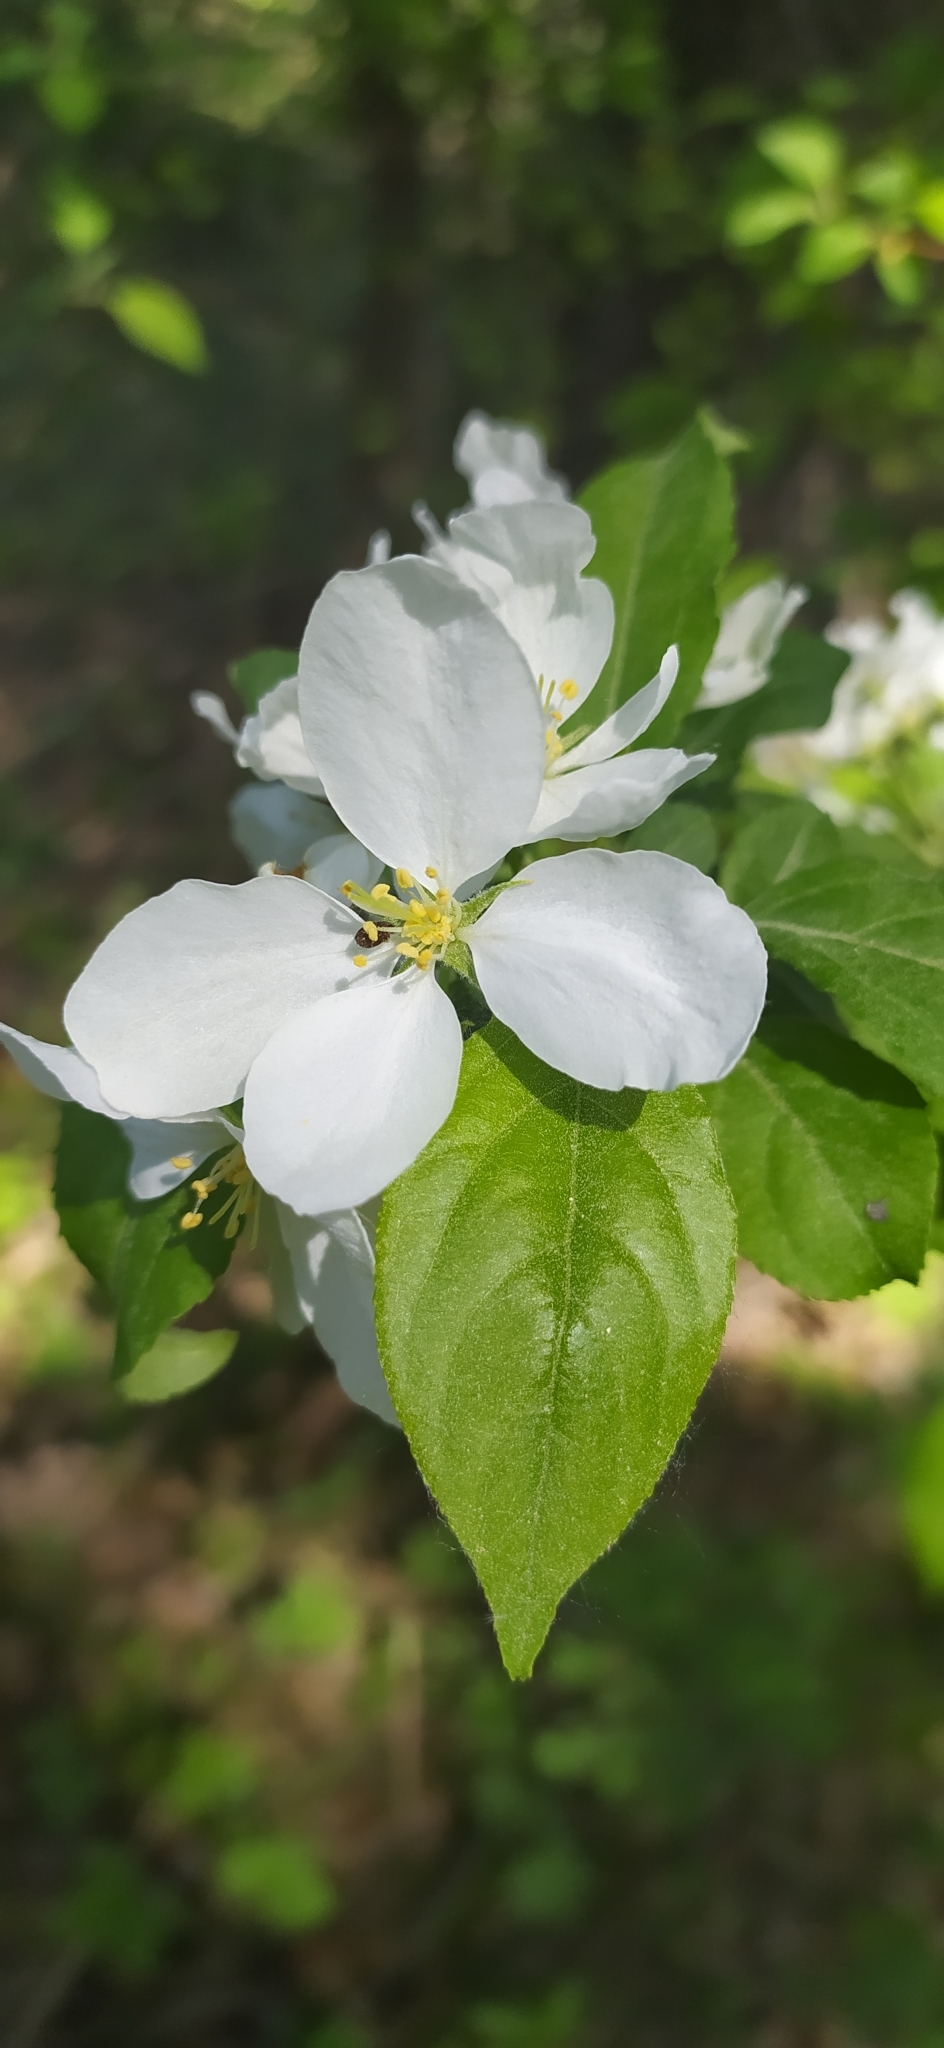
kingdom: Plantae
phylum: Tracheophyta
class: Magnoliopsida
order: Rosales
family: Rosaceae
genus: Malus
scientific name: Malus baccata
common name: Siberian crab
